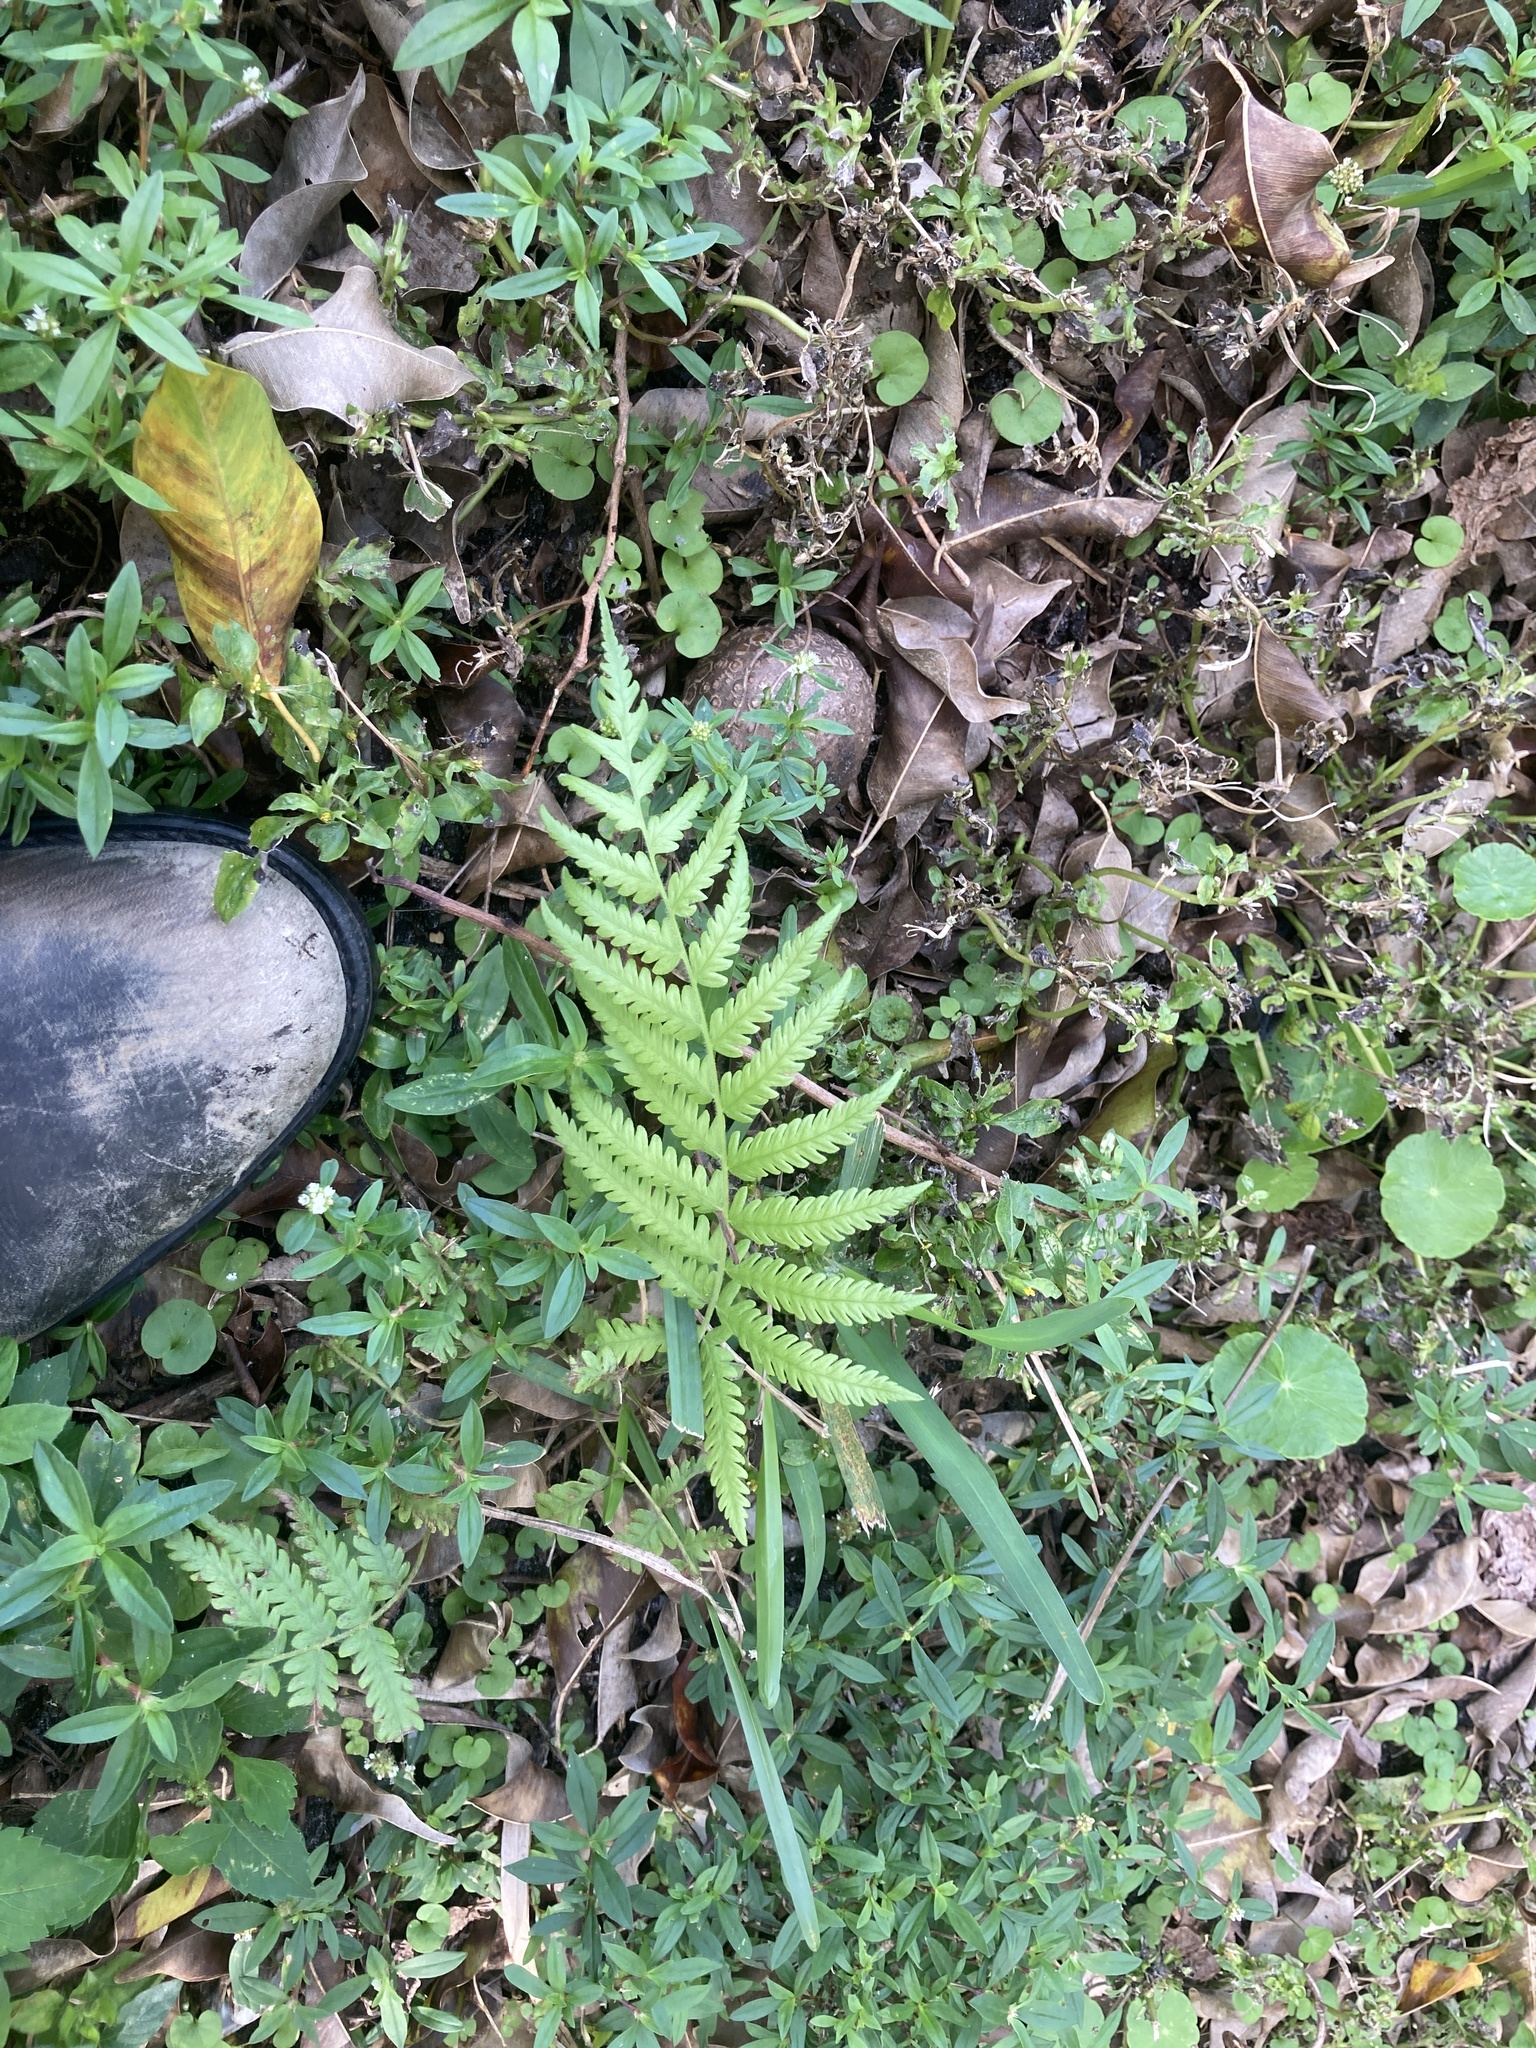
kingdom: Plantae
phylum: Tracheophyta
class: Polypodiopsida
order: Polypodiales
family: Thelypteridaceae
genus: Pelazoneuron
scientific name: Pelazoneuron kunthii
